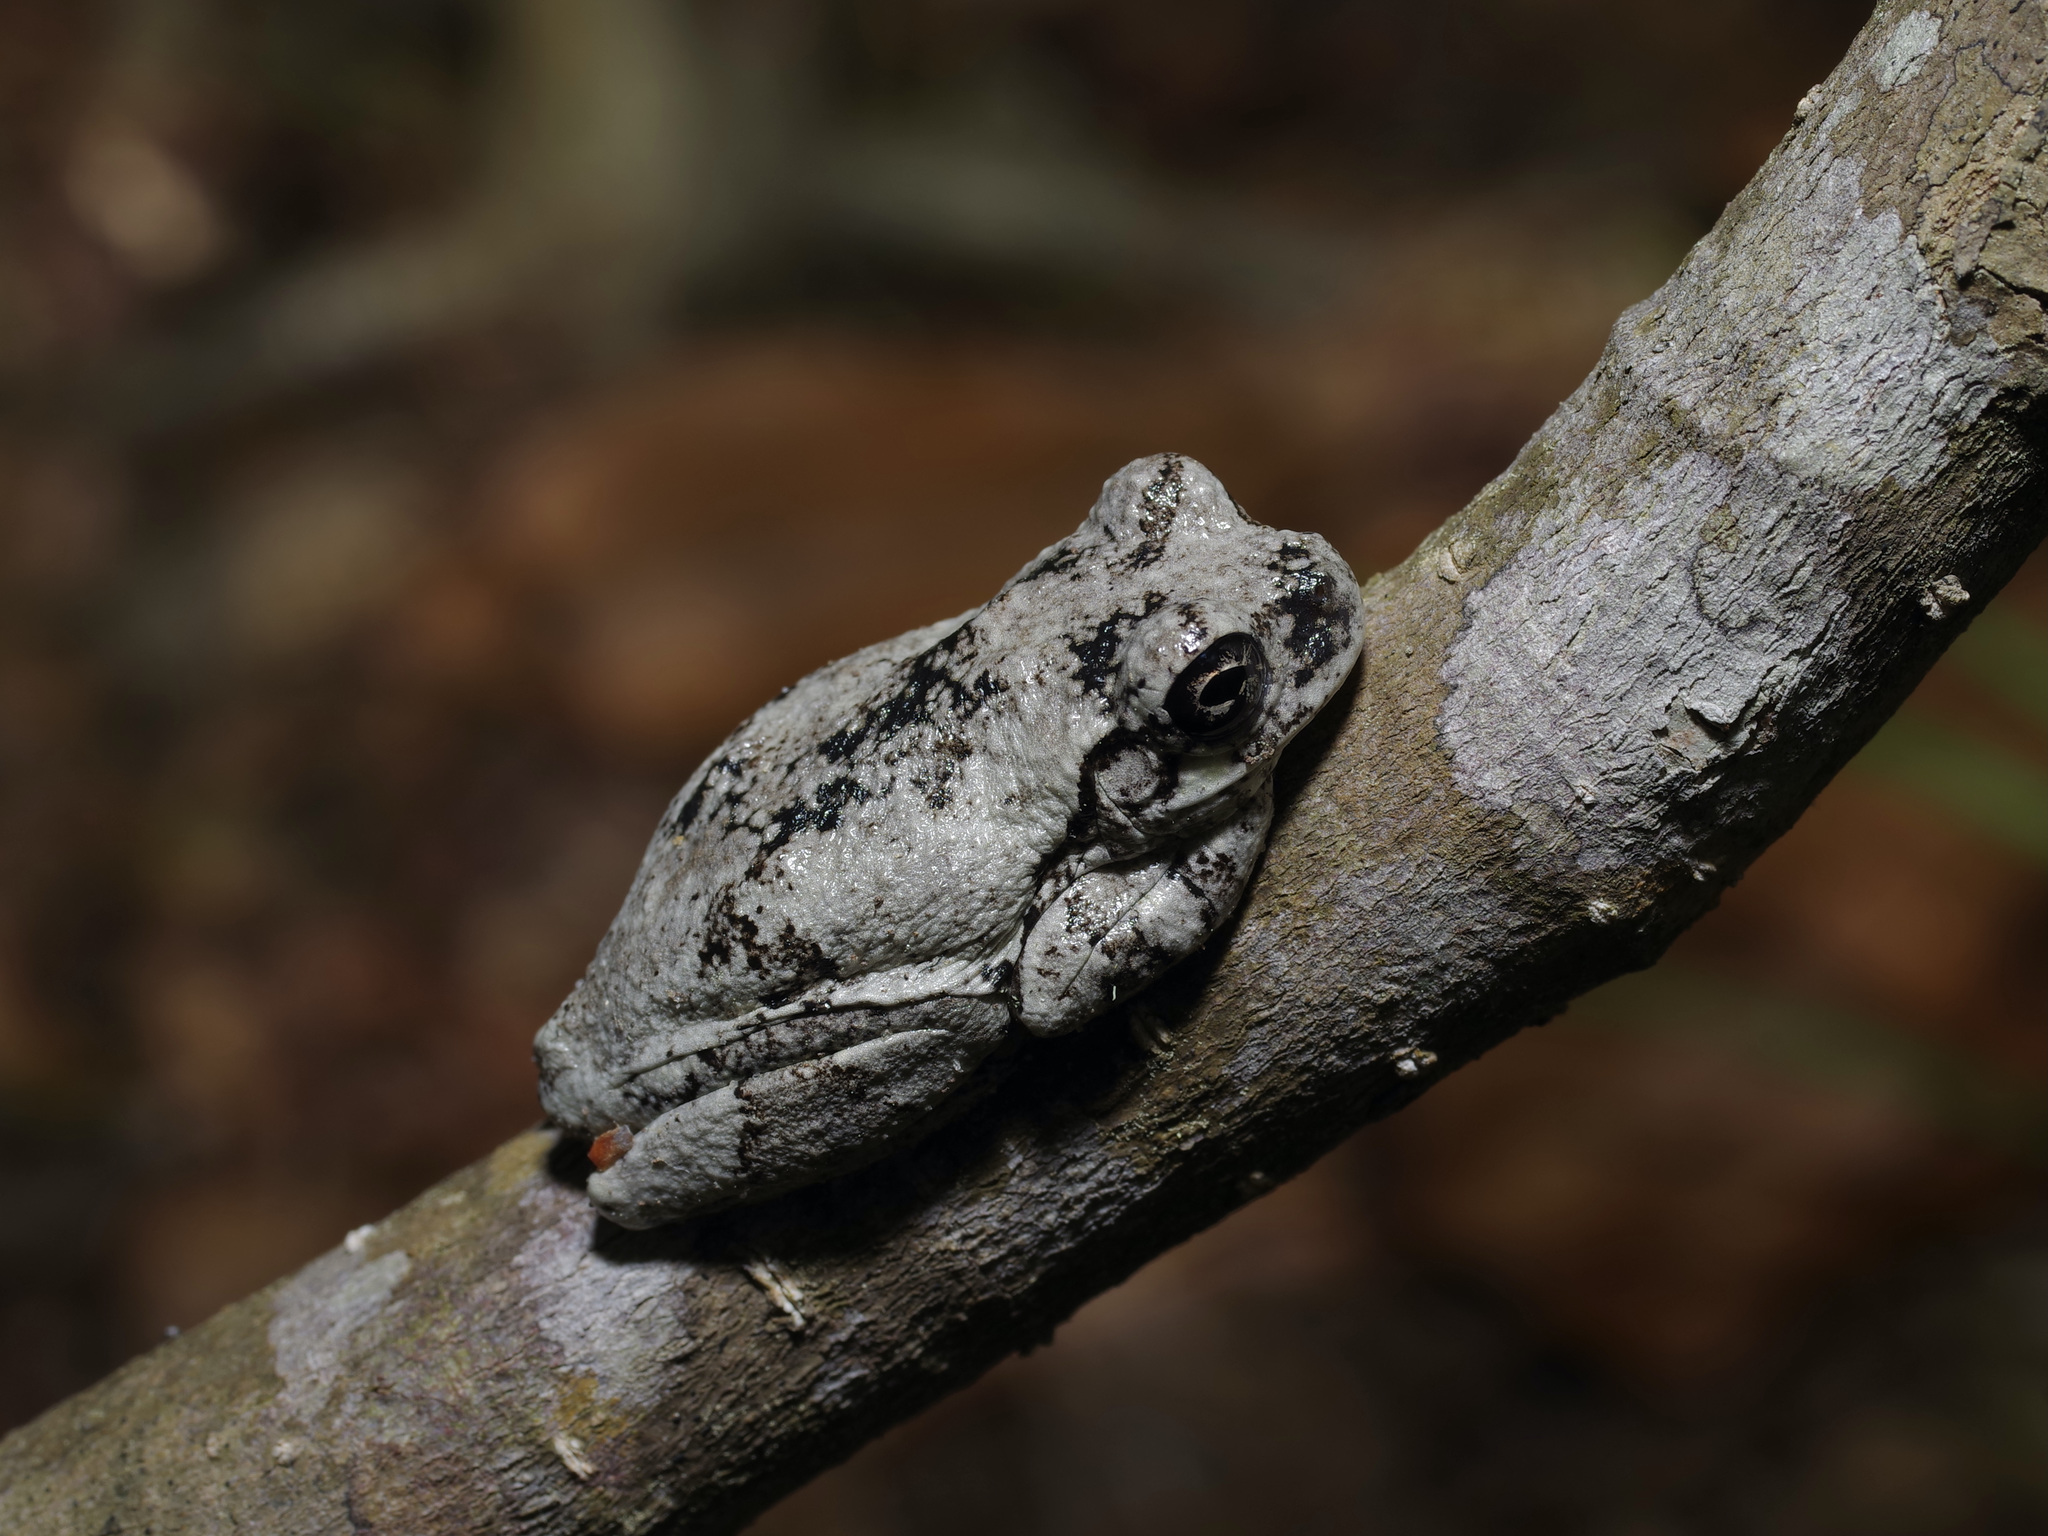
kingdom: Animalia
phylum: Chordata
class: Amphibia
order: Anura
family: Hylidae
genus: Hyla
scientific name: Hyla
